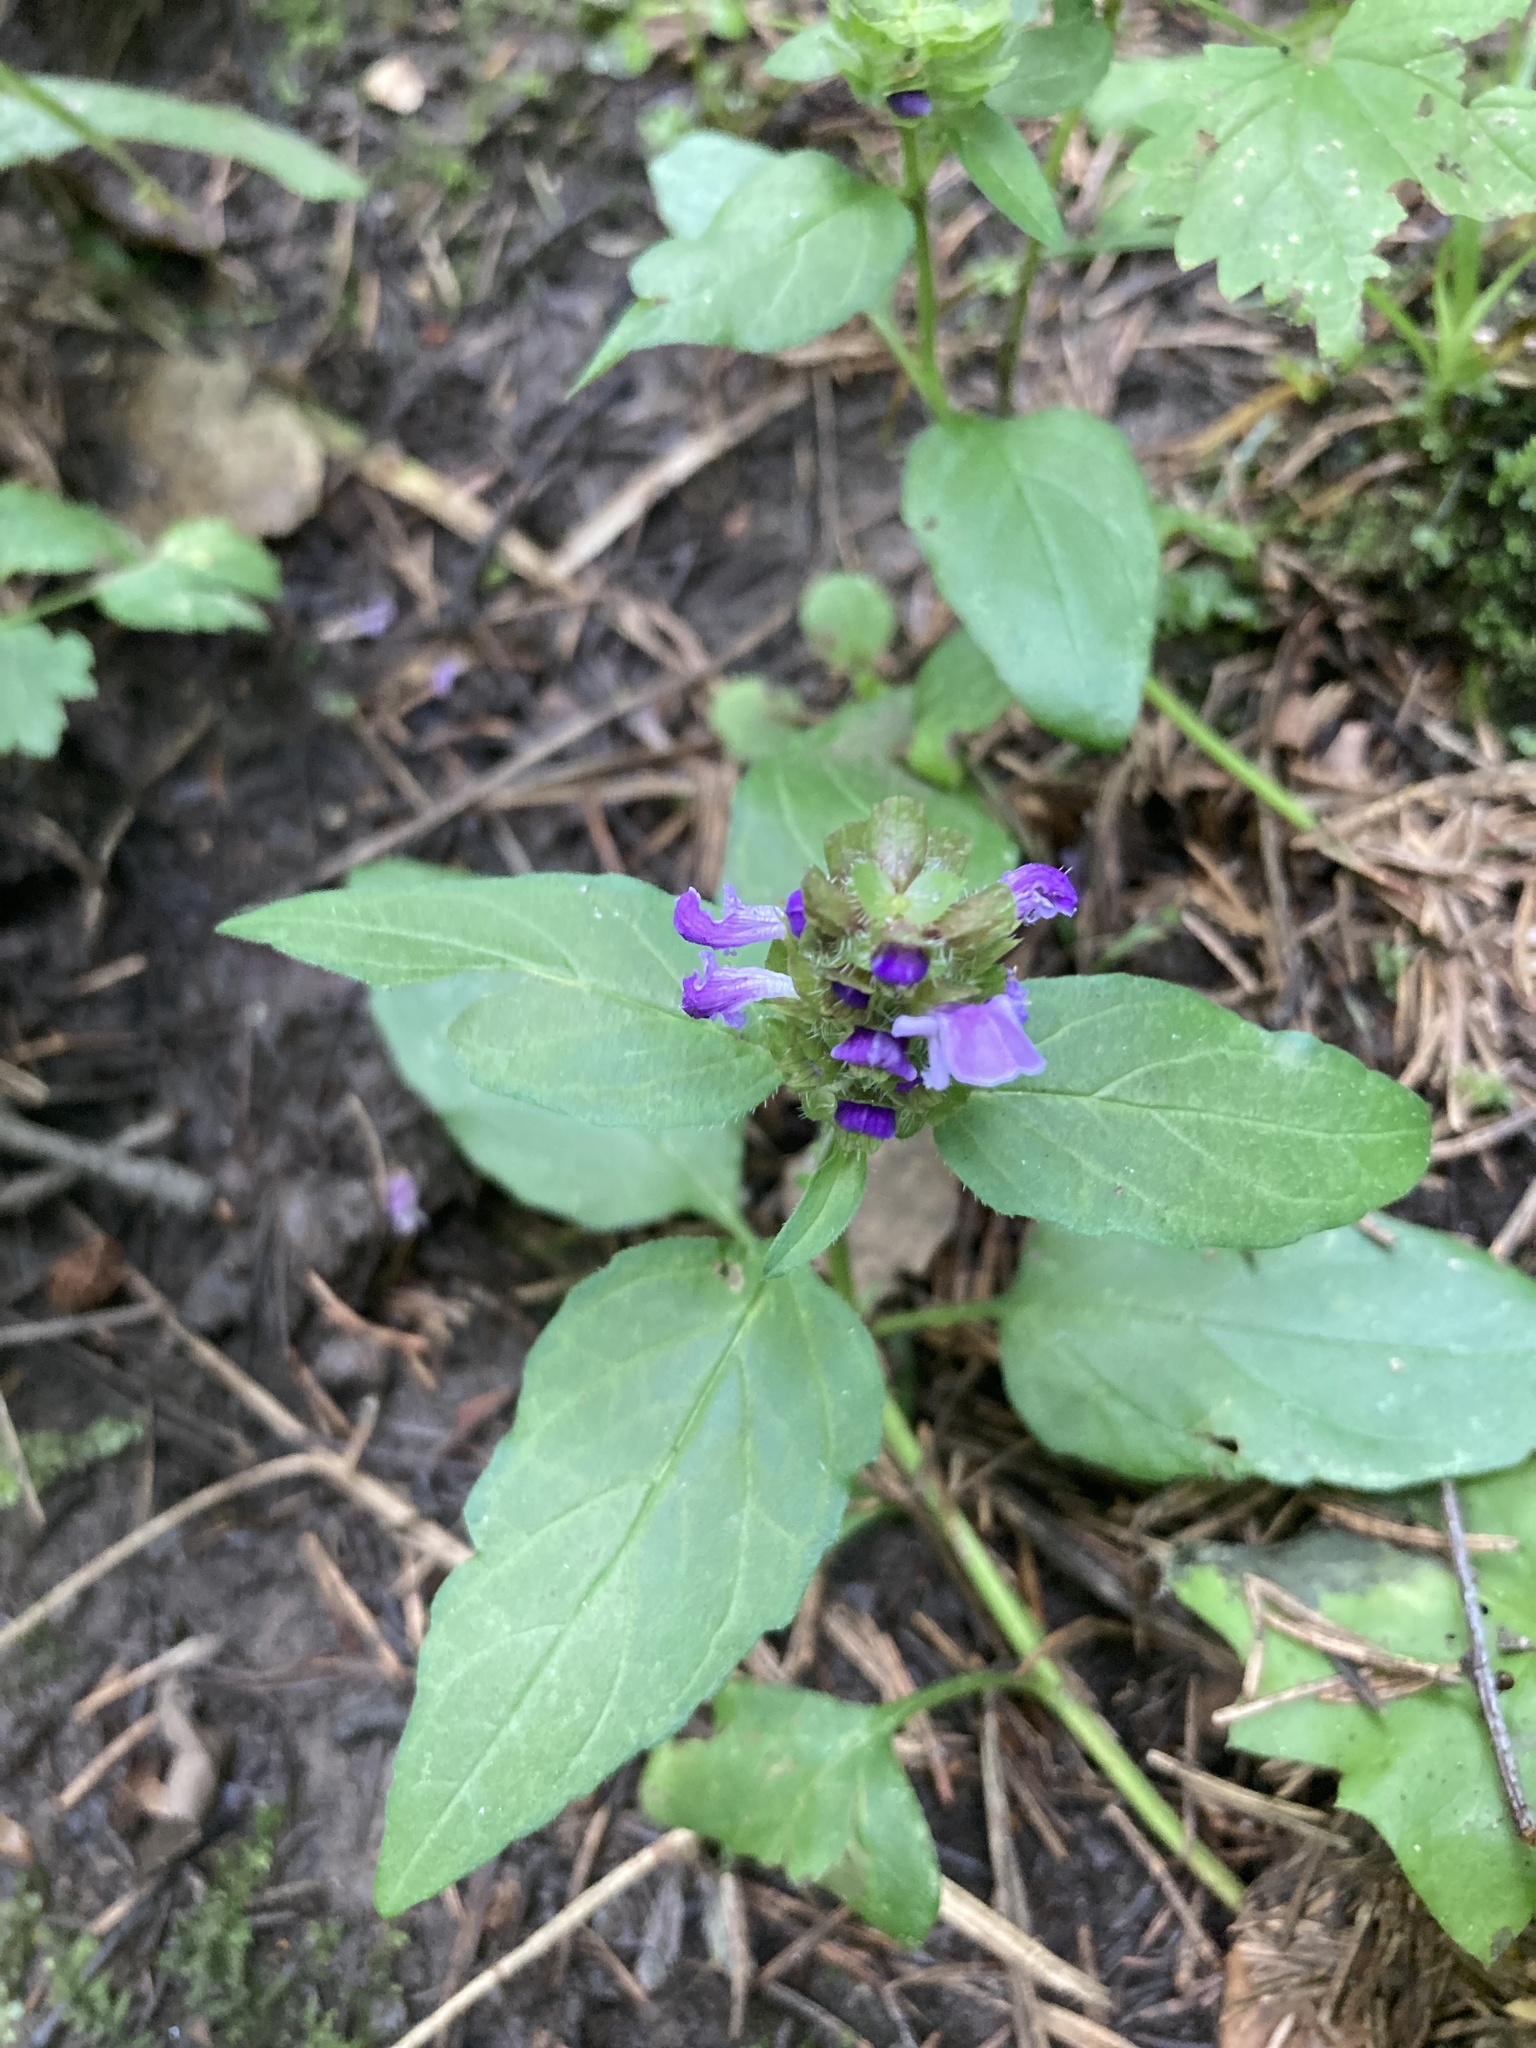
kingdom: Plantae
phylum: Tracheophyta
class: Magnoliopsida
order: Lamiales
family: Lamiaceae
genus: Prunella
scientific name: Prunella vulgaris
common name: Heal-all
